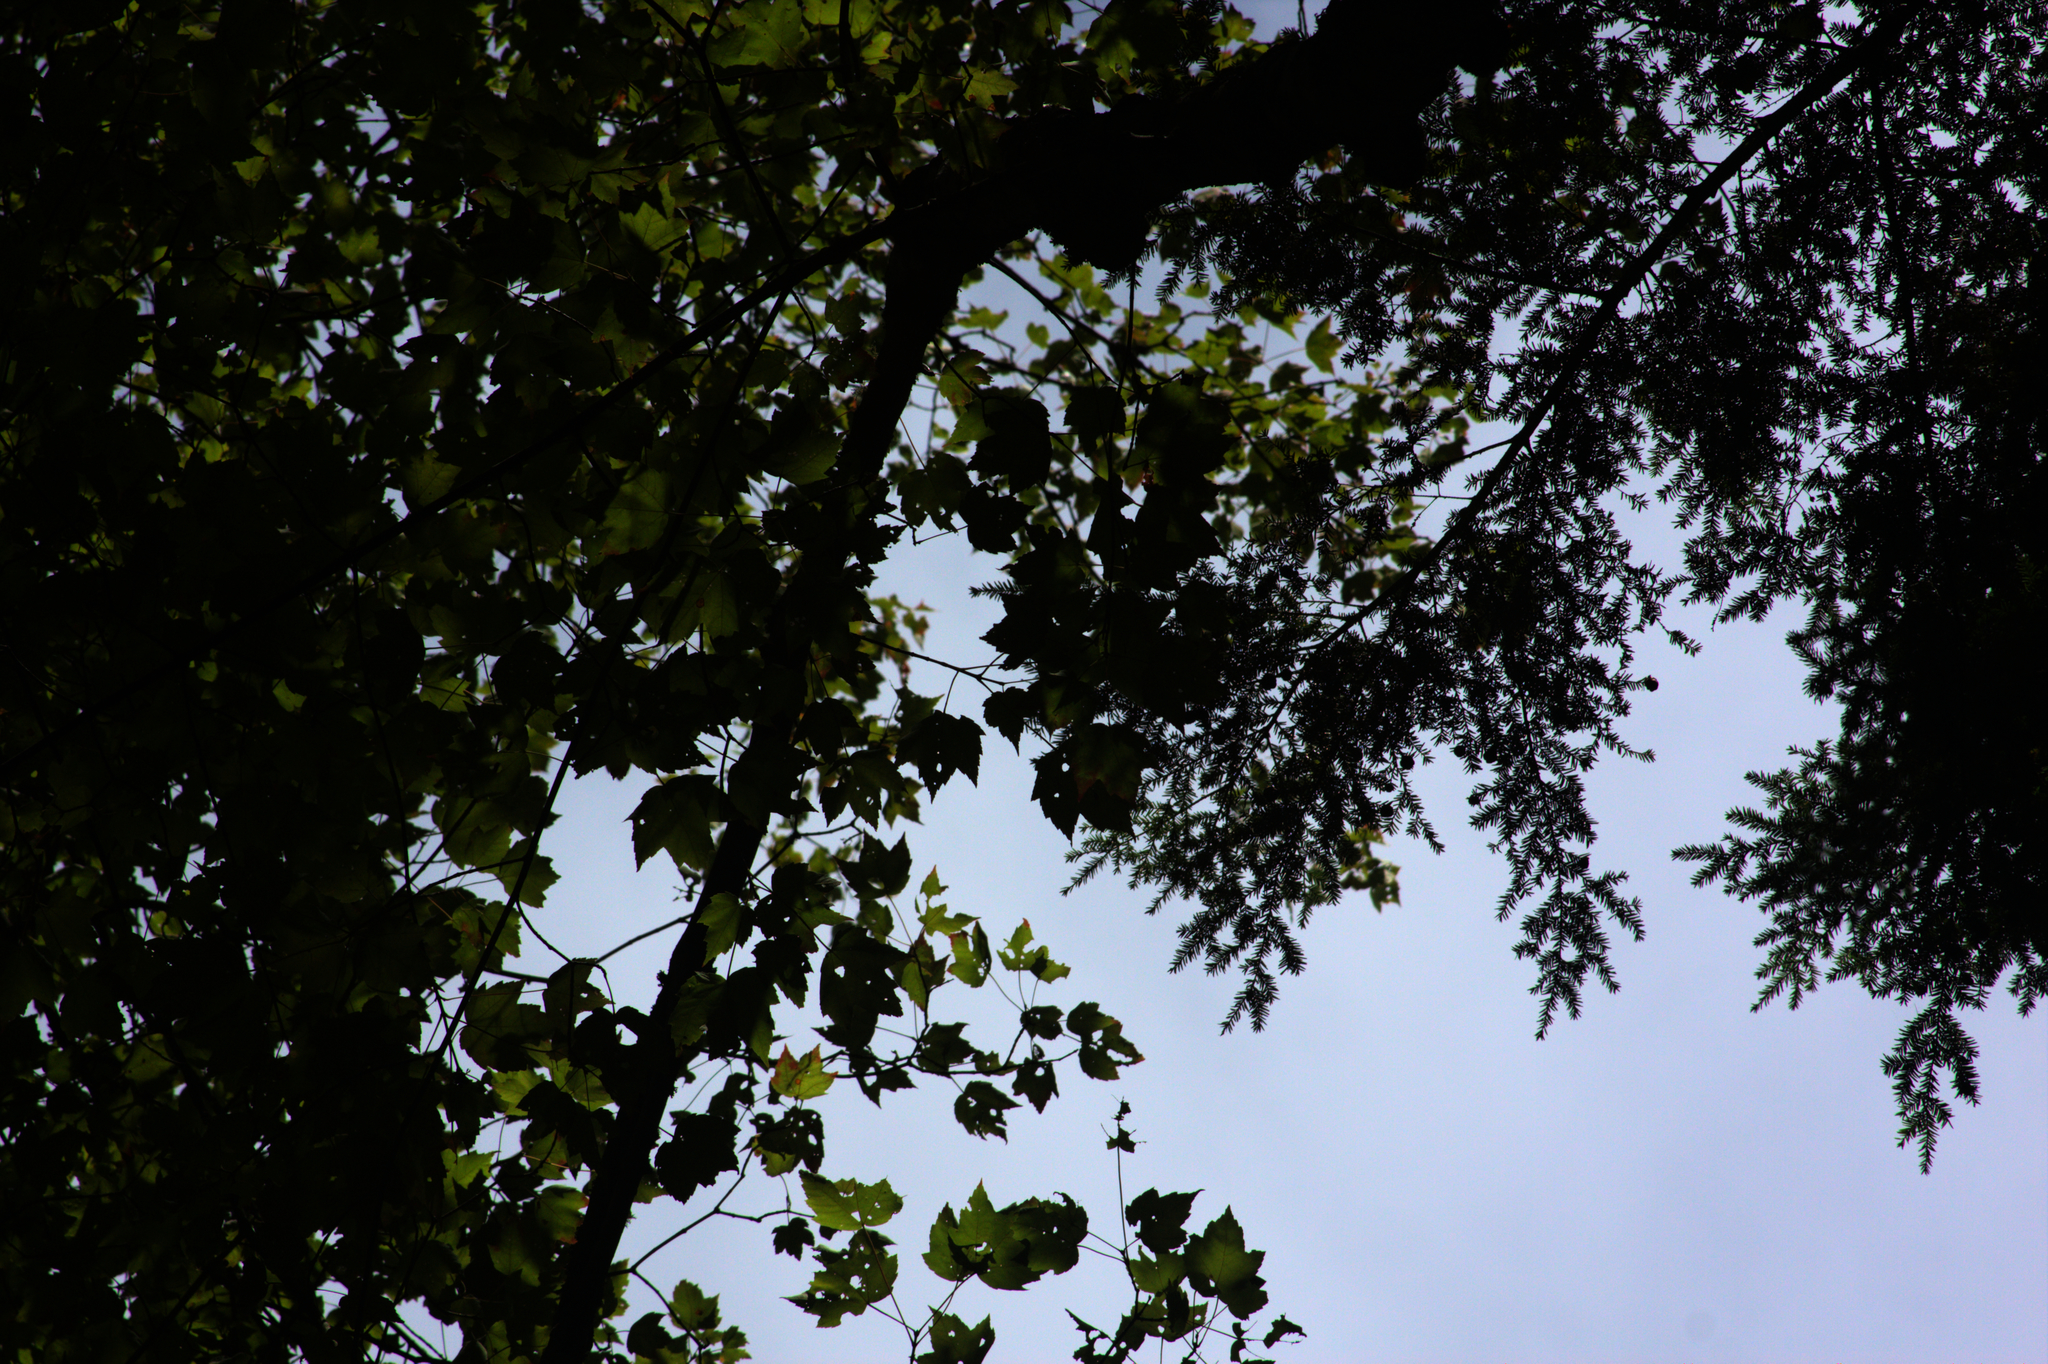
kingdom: Plantae
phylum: Tracheophyta
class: Pinopsida
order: Pinales
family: Pinaceae
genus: Tsuga
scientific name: Tsuga canadensis
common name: Eastern hemlock
